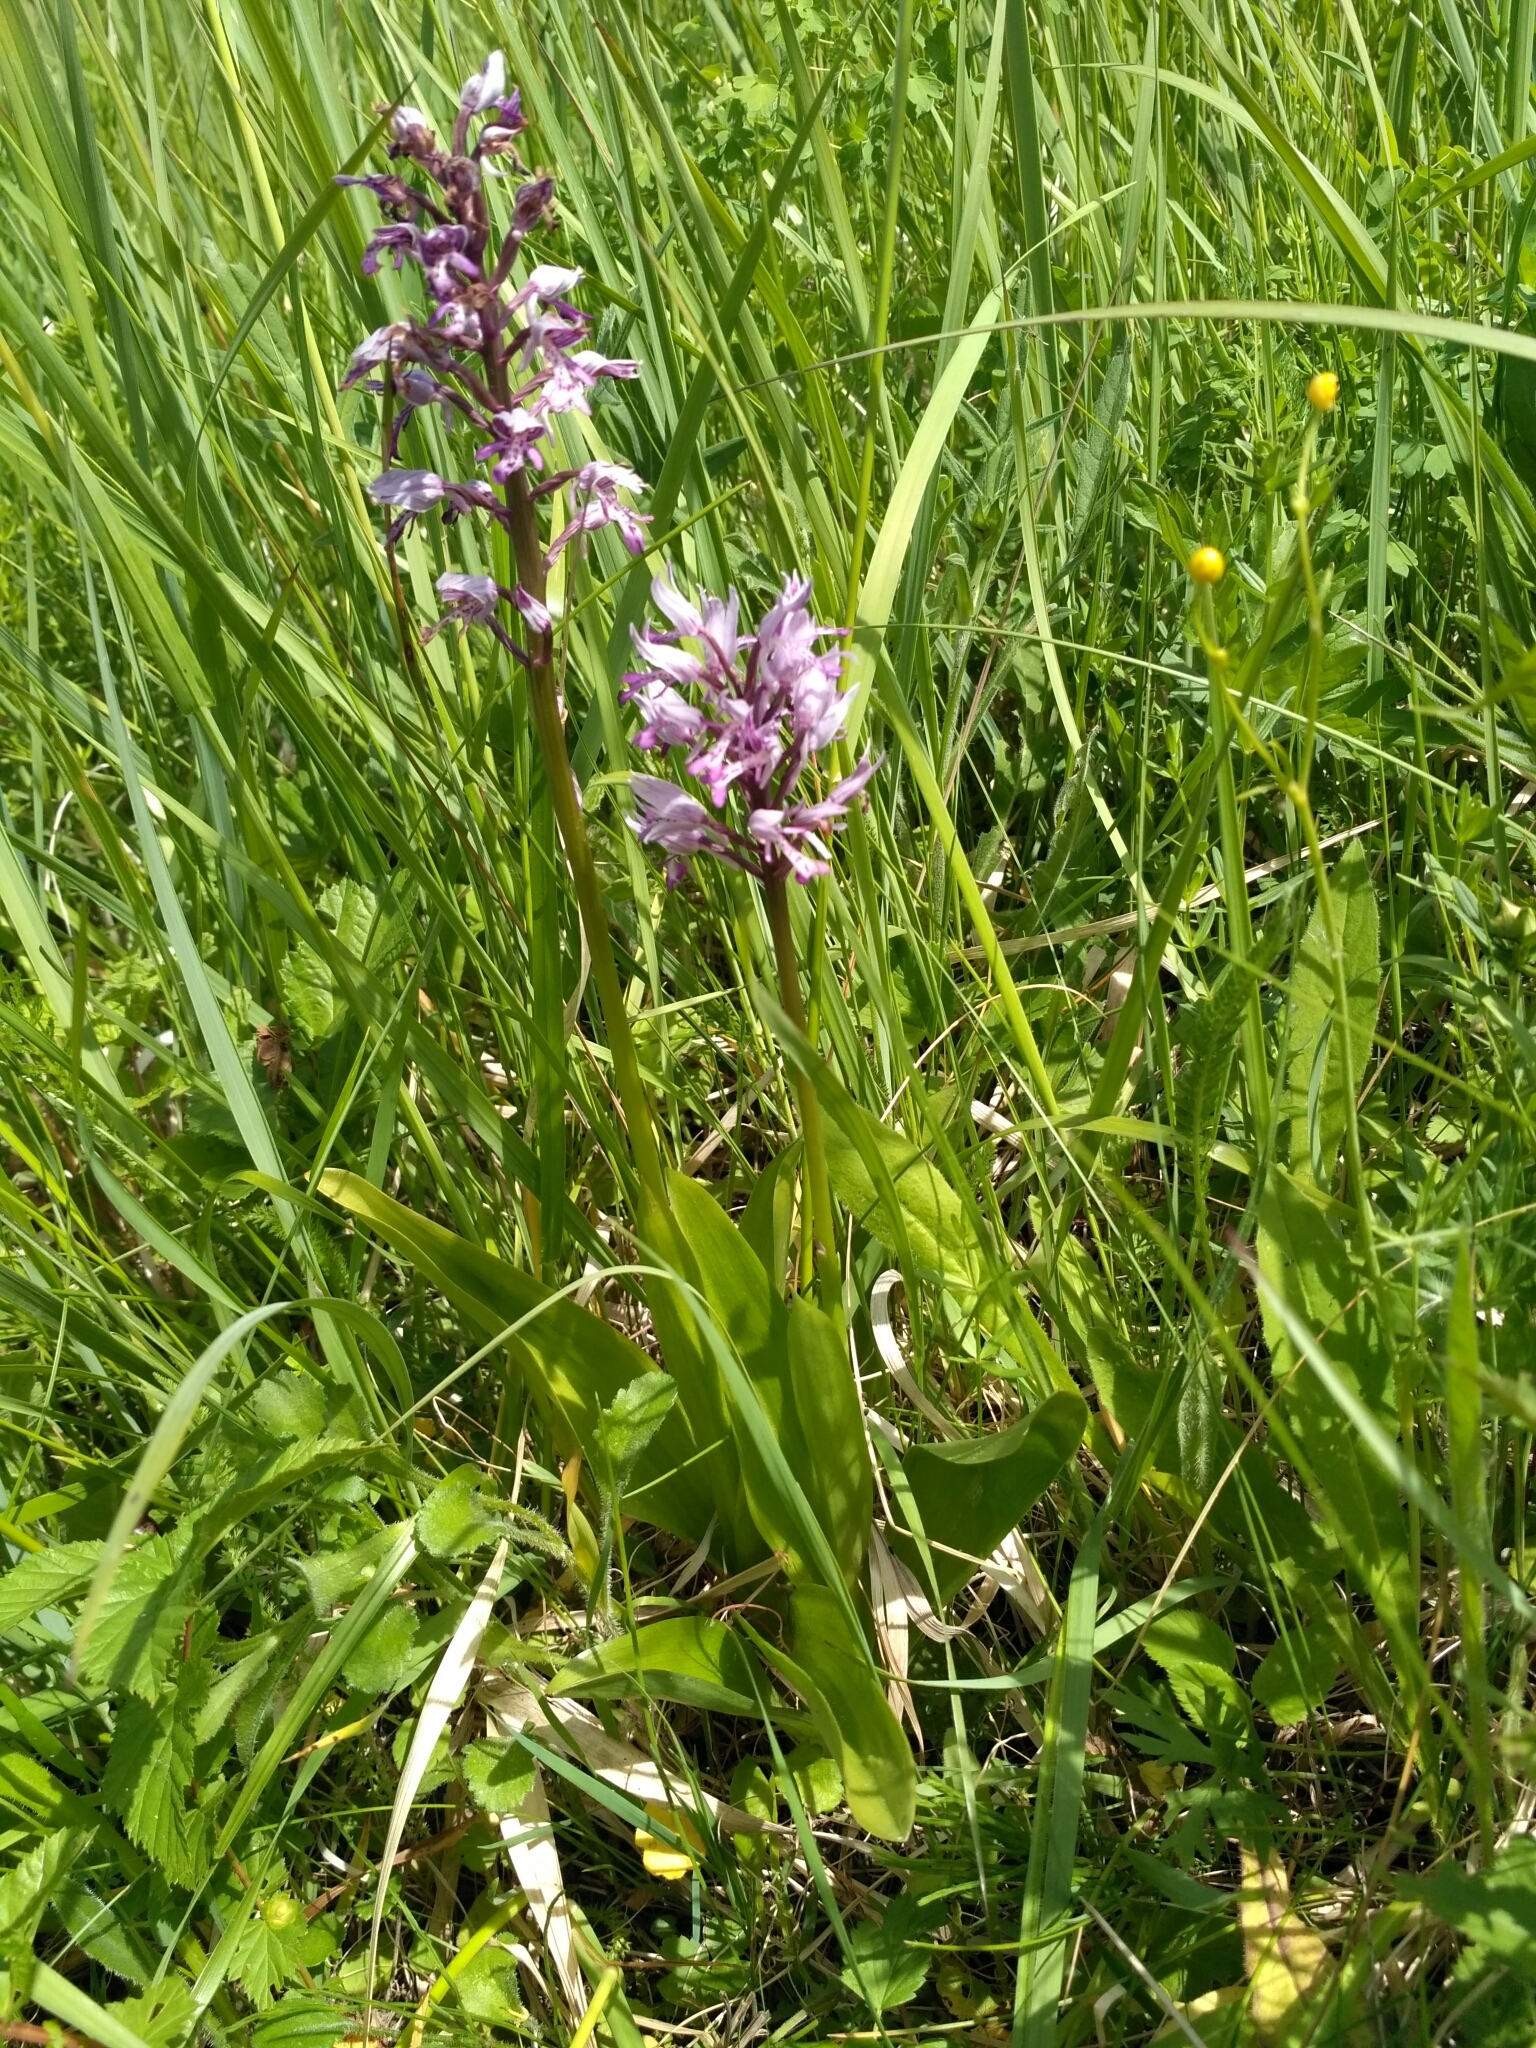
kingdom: Plantae
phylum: Tracheophyta
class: Liliopsida
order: Asparagales
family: Orchidaceae
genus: Orchis
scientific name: Orchis militaris
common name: Military orchid
